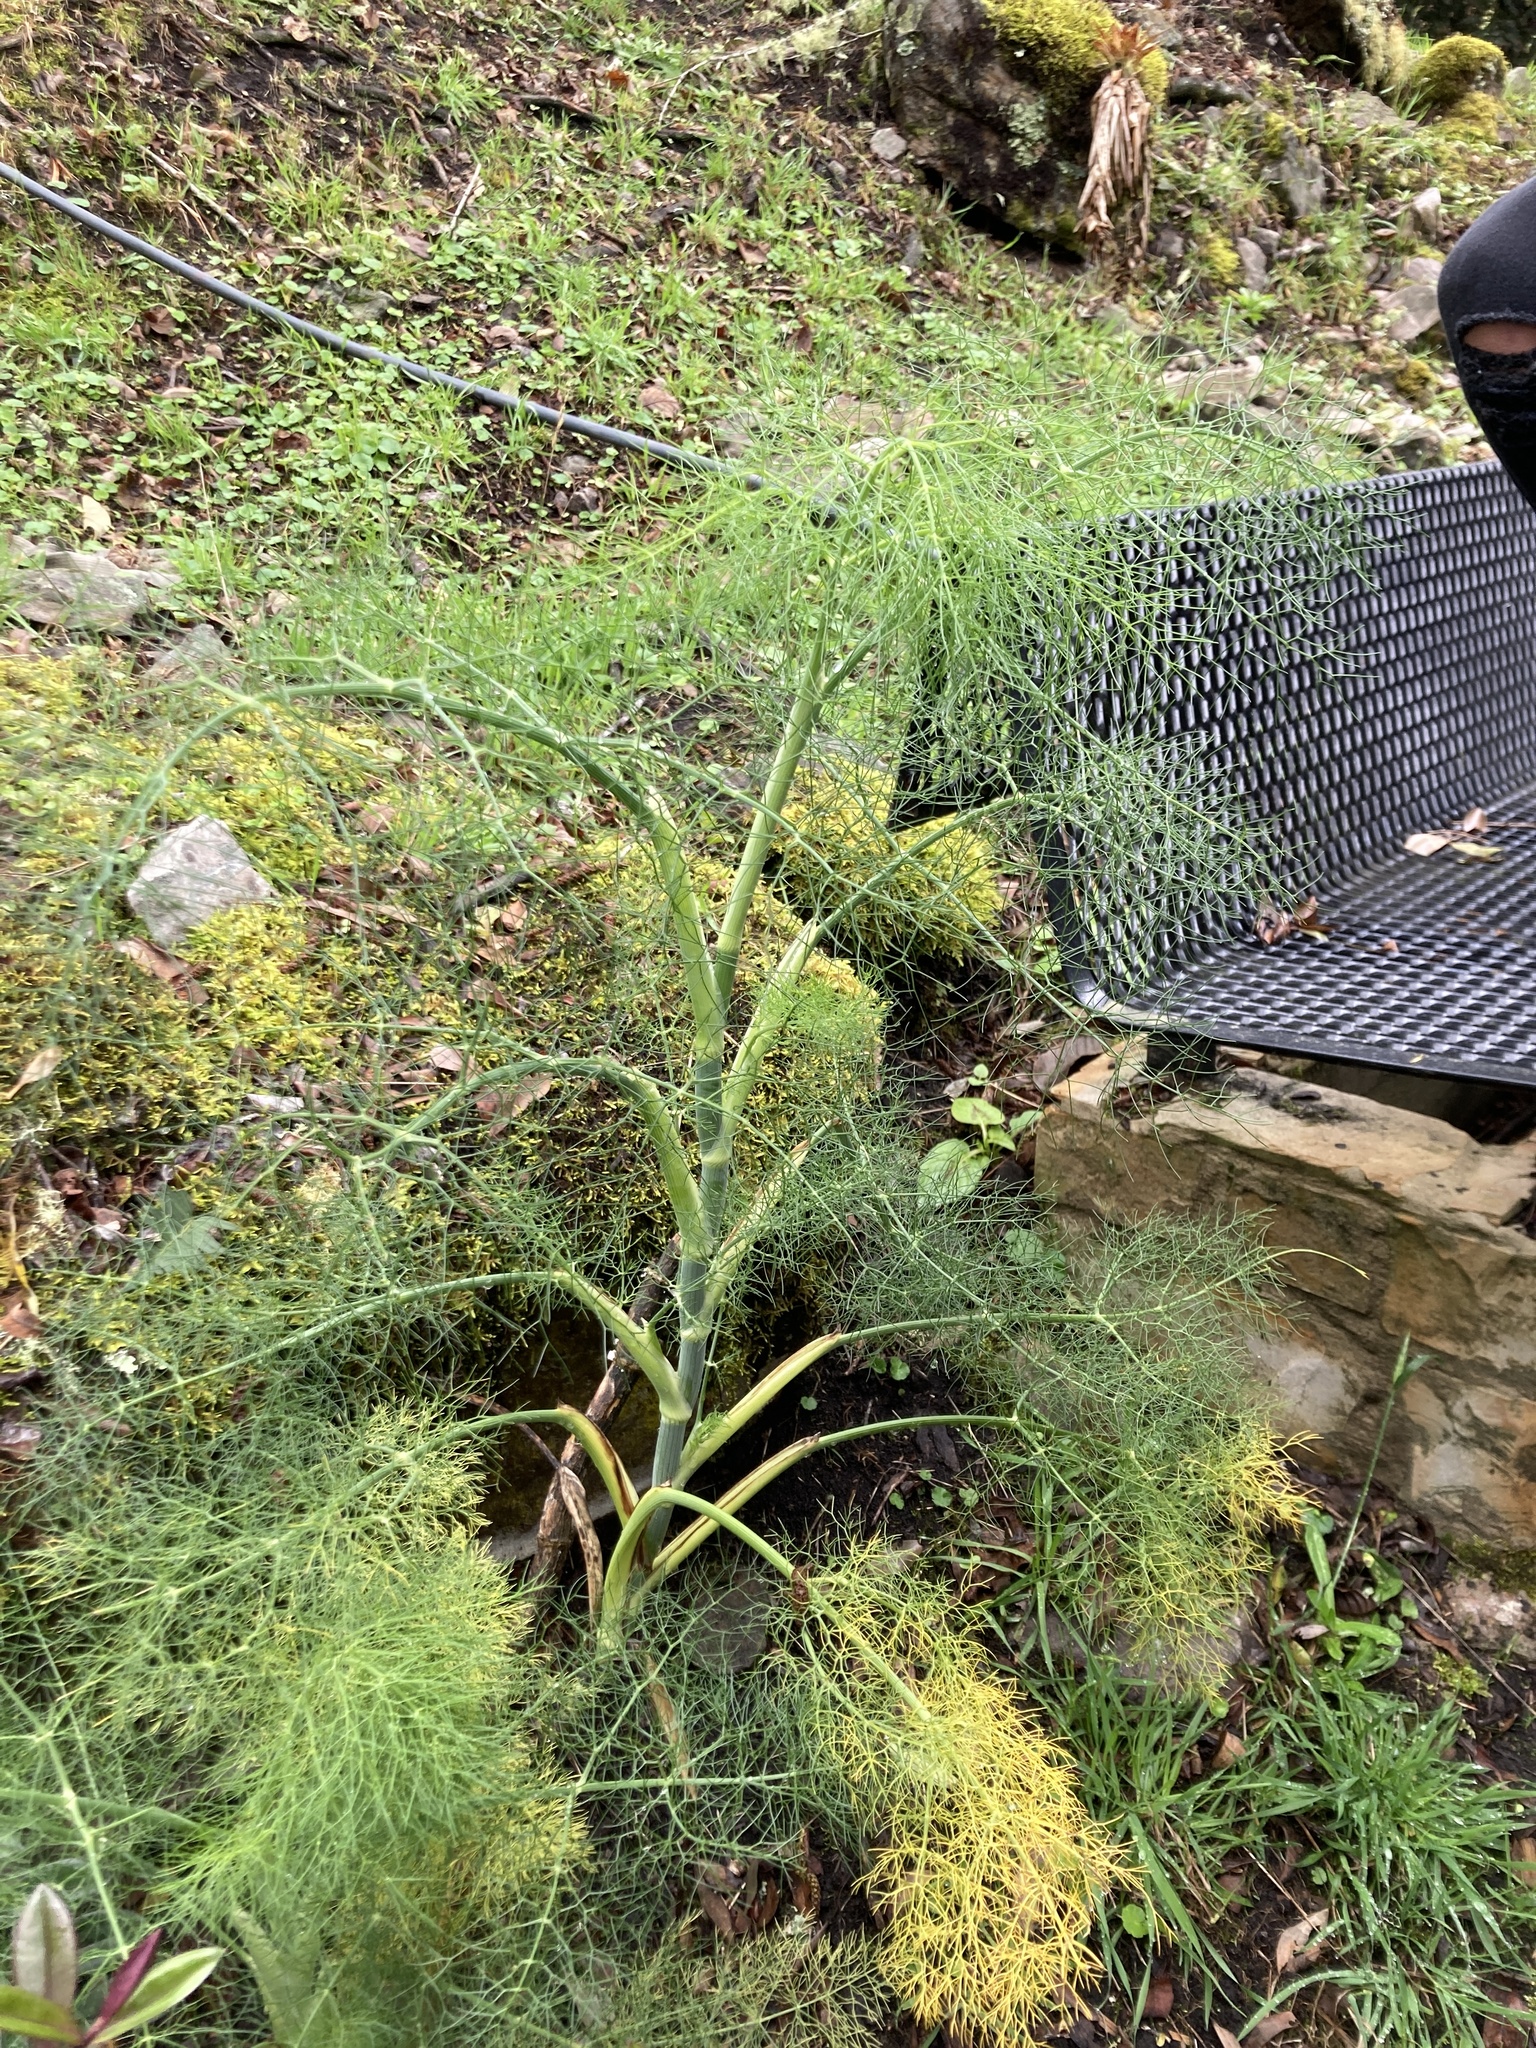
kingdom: Plantae
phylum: Tracheophyta
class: Magnoliopsida
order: Apiales
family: Apiaceae
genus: Foeniculum
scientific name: Foeniculum vulgare
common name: Fennel
